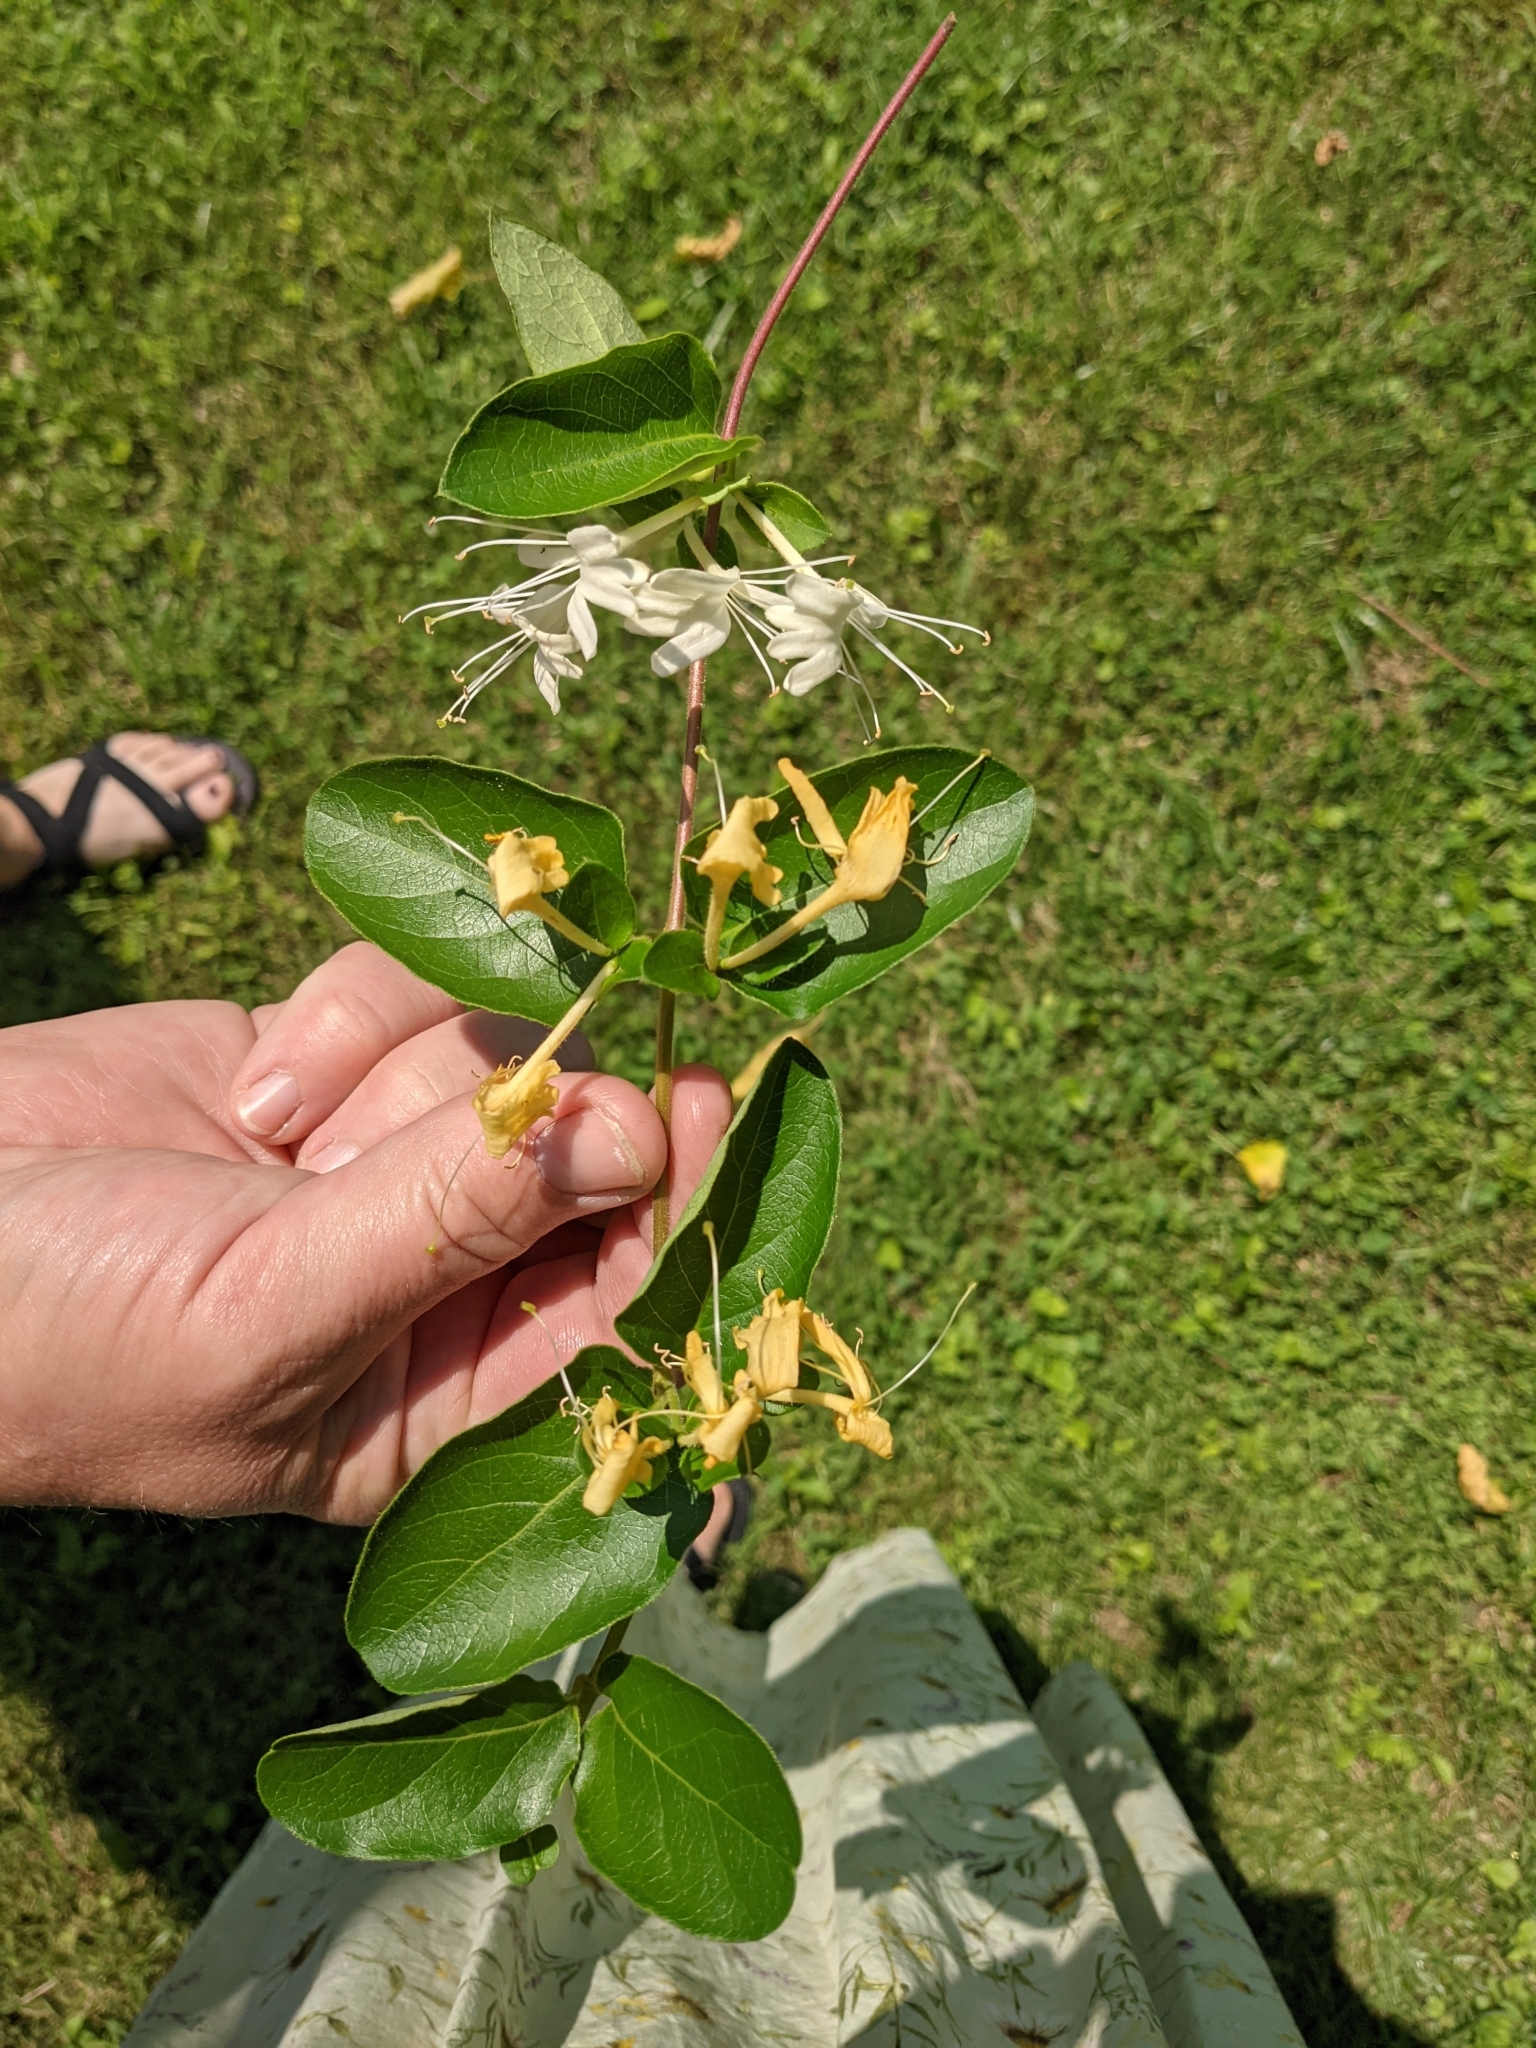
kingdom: Plantae
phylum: Tracheophyta
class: Magnoliopsida
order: Dipsacales
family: Caprifoliaceae
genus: Lonicera
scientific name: Lonicera japonica
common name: Japanese honeysuckle
